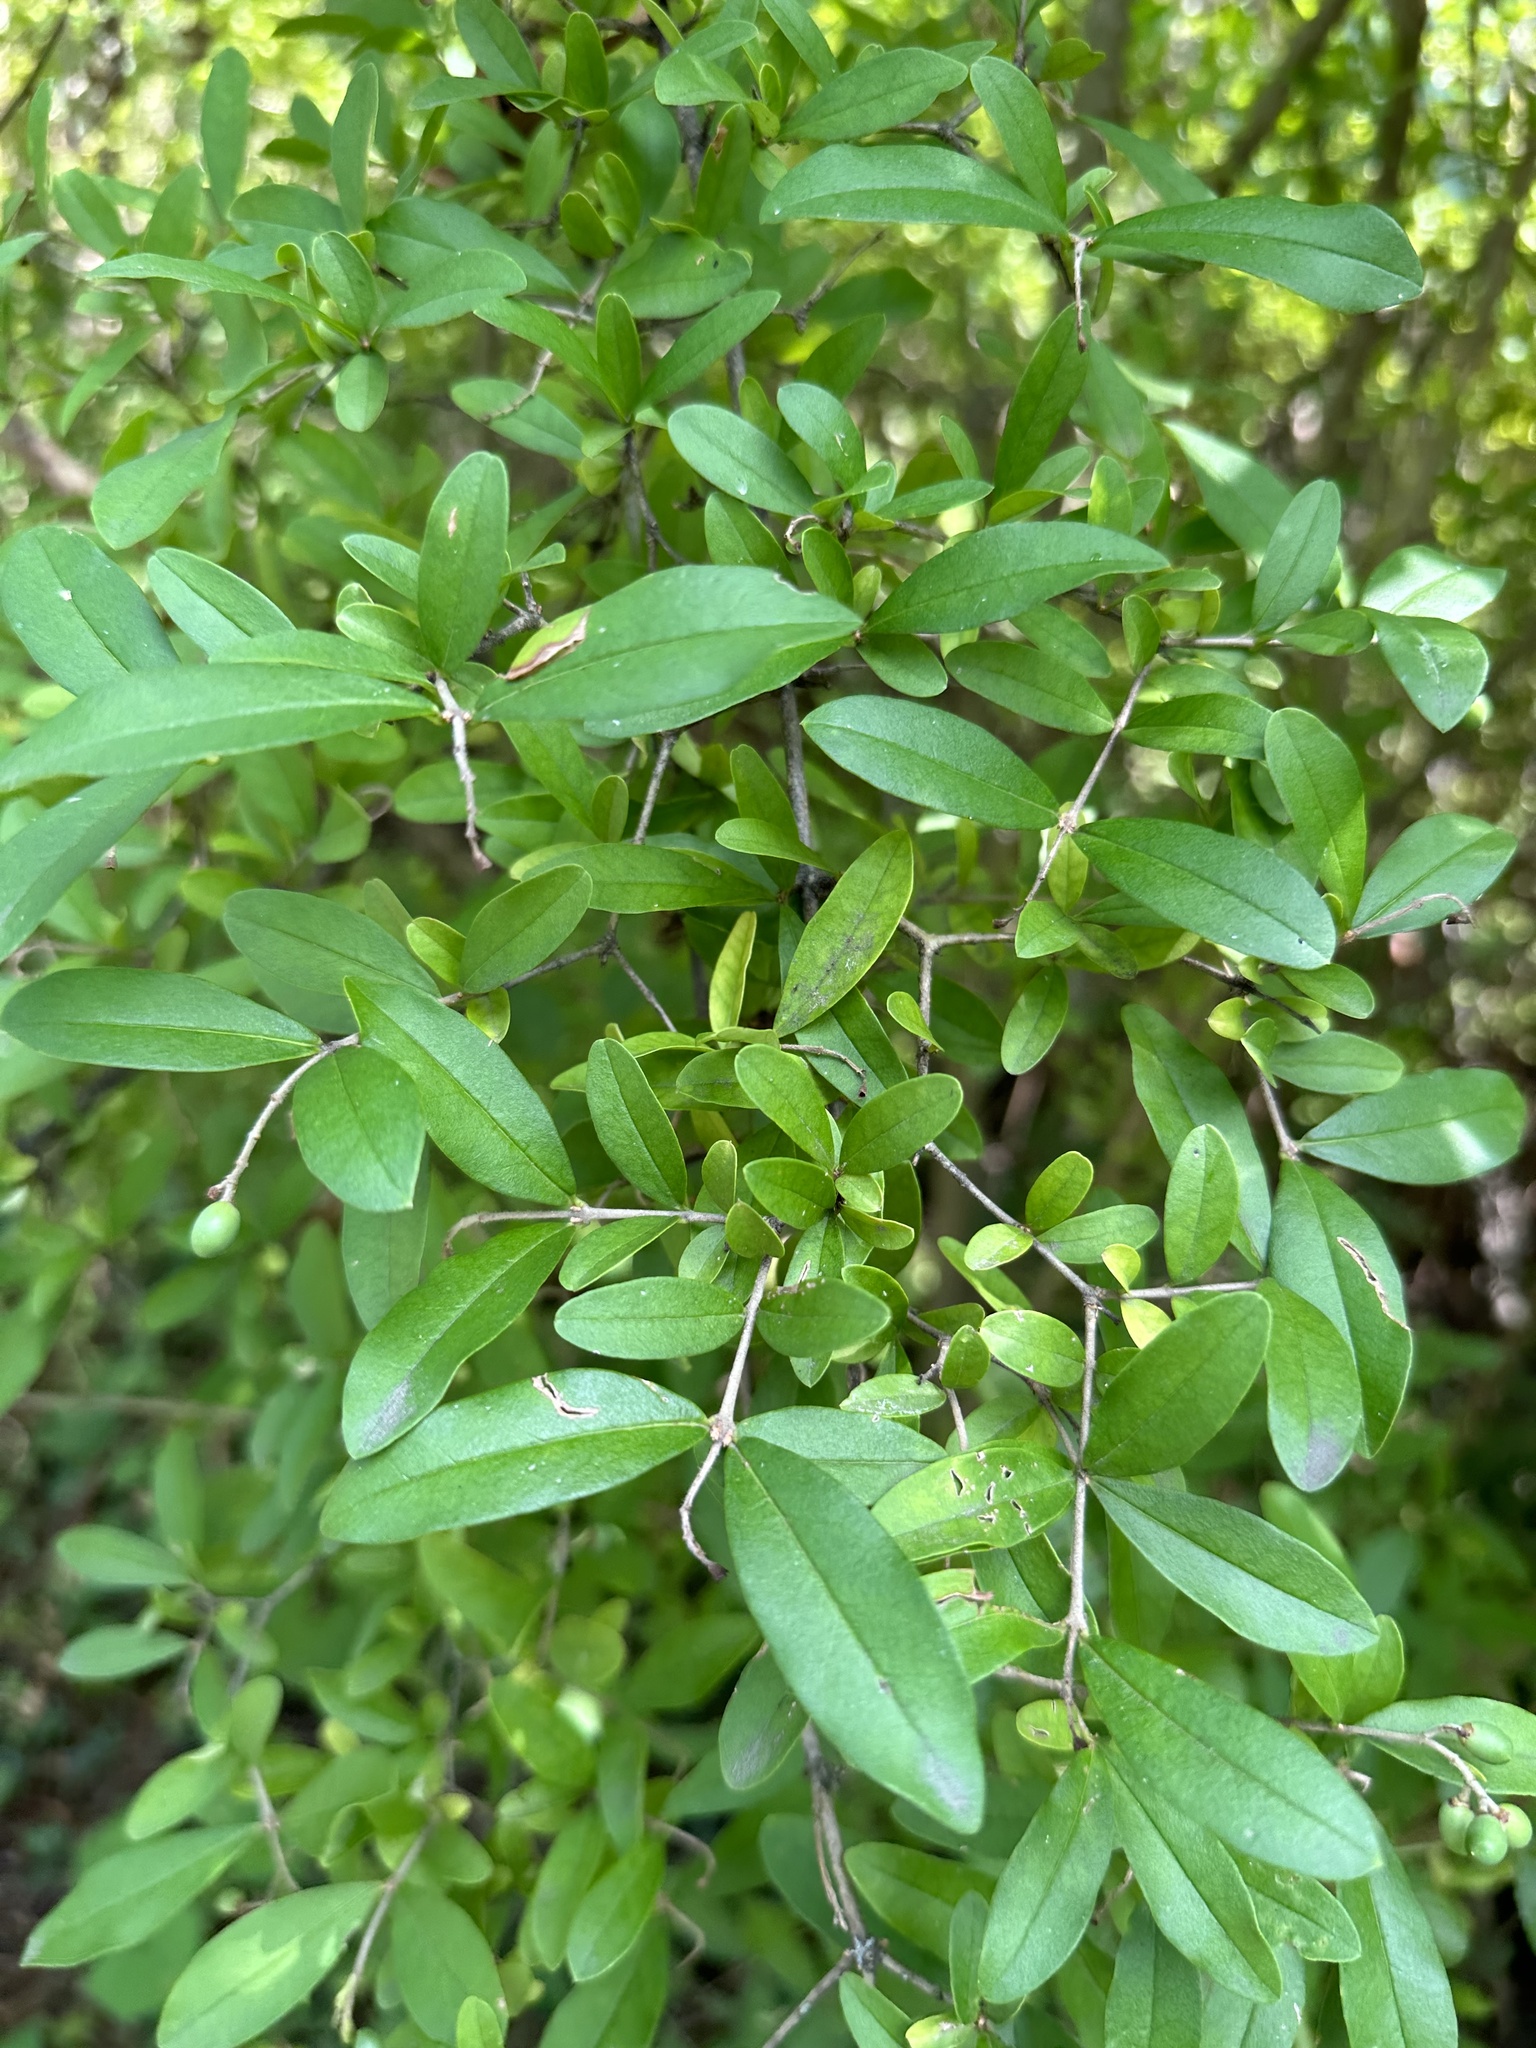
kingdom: Plantae
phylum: Tracheophyta
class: Magnoliopsida
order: Lamiales
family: Oleaceae
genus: Ligustrum
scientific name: Ligustrum obtusifolium
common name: Border privet
